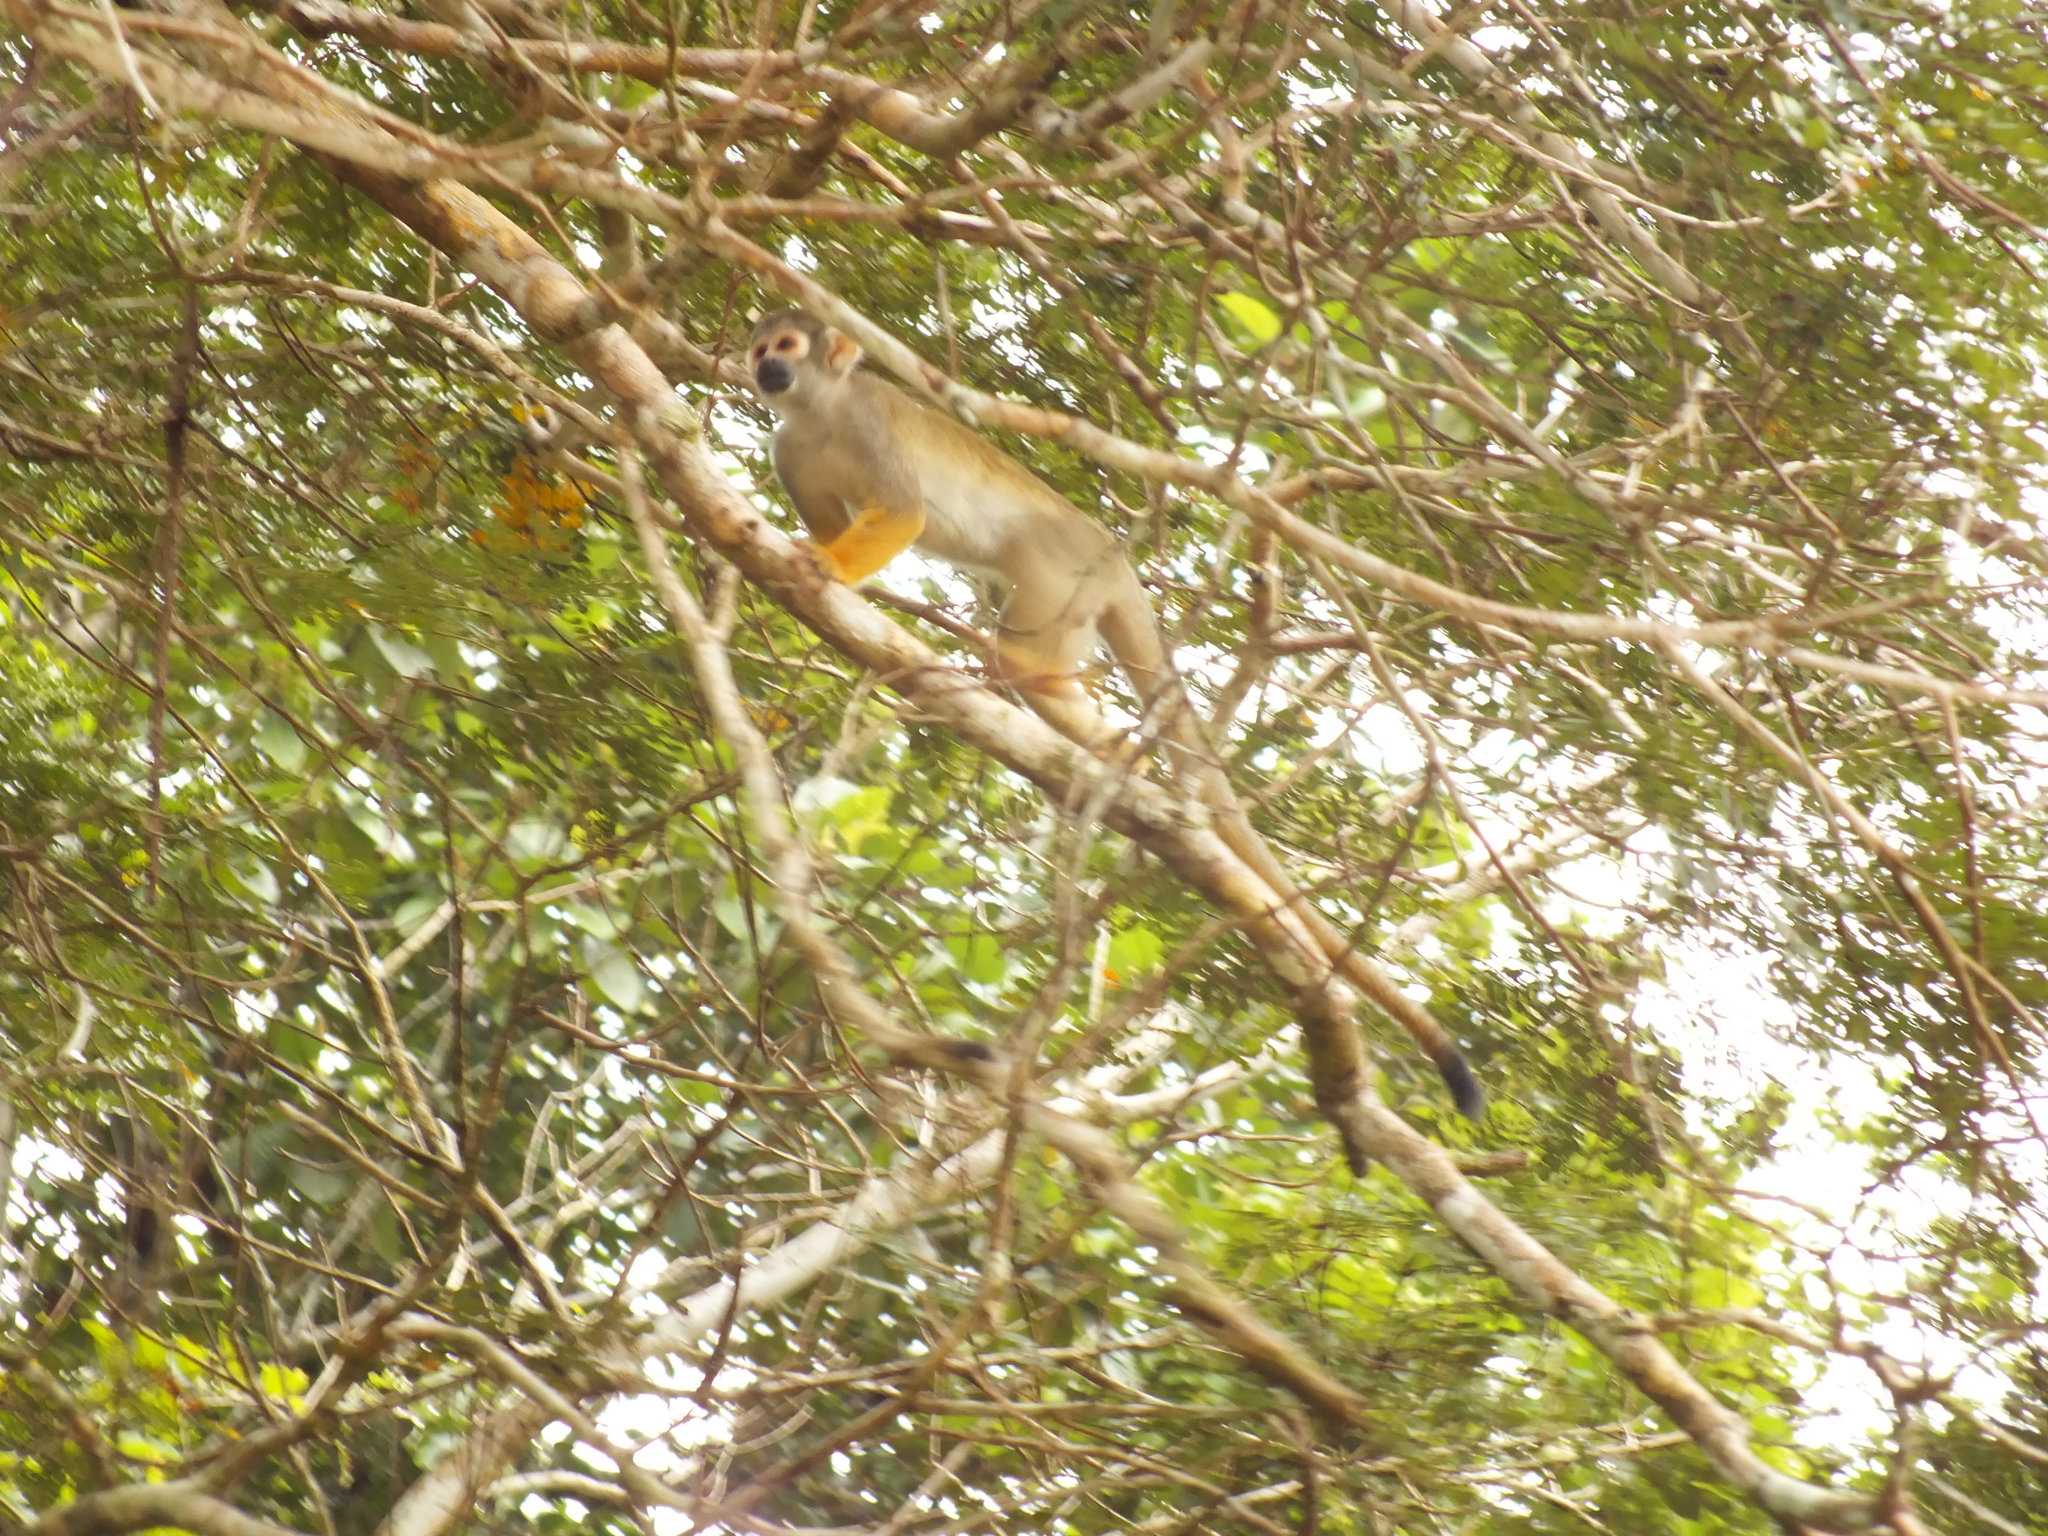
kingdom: Animalia
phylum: Chordata
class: Mammalia
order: Primates
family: Cebidae
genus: Saimiri
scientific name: Saimiri cassiquiarensis
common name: Humboldt’s squirrel monkey
